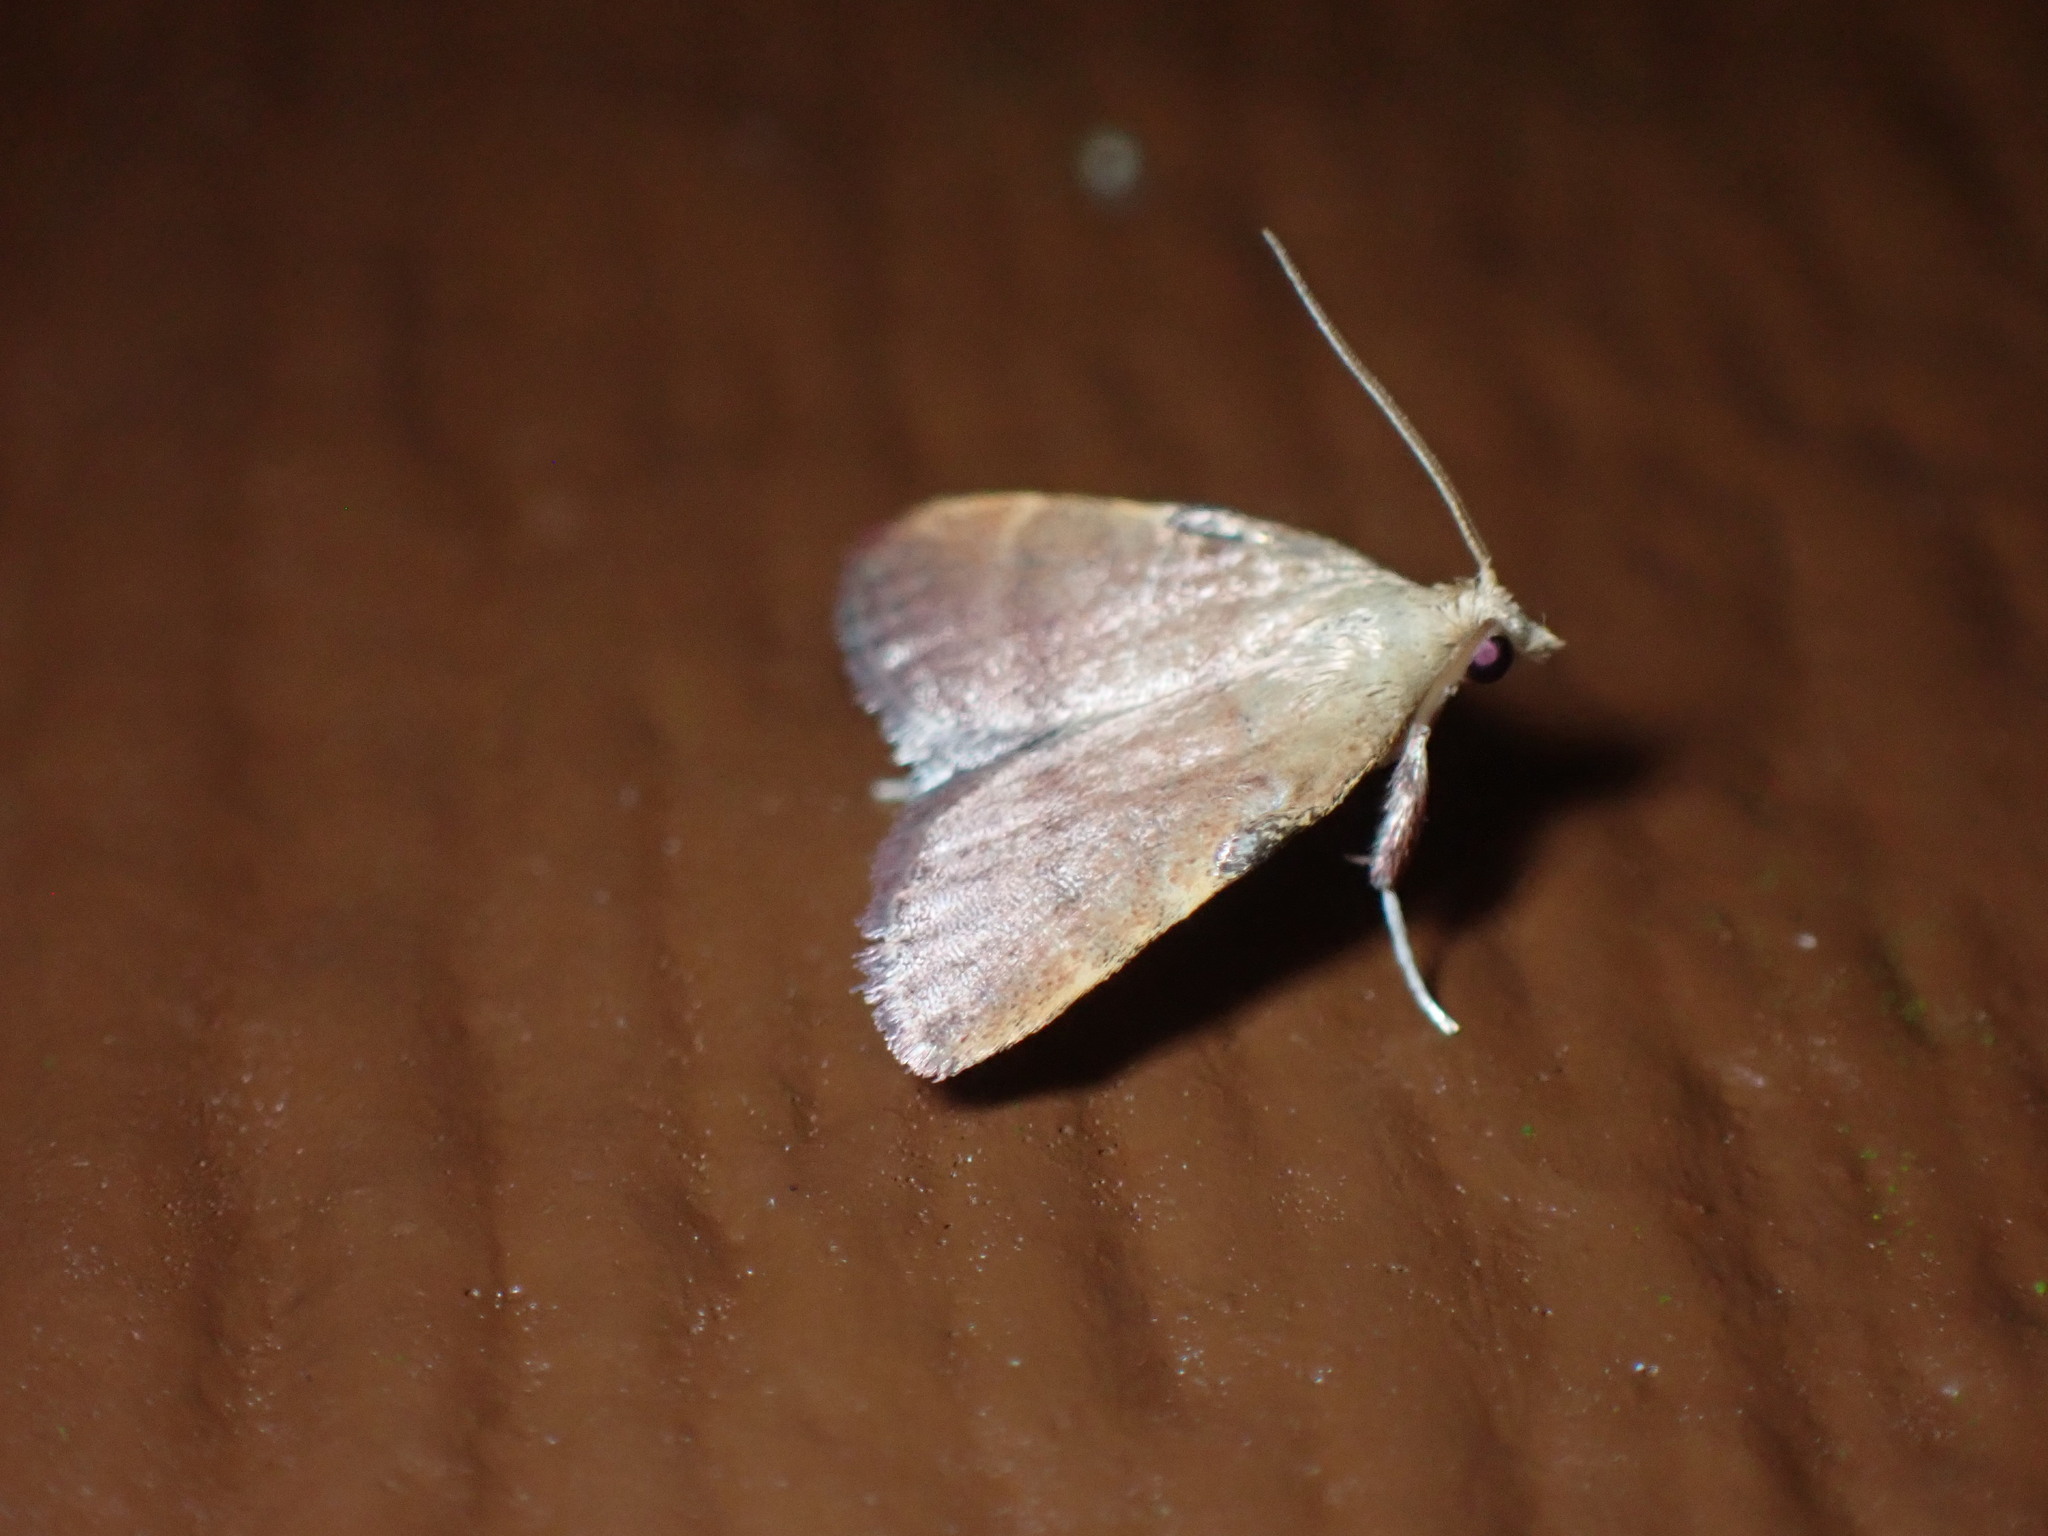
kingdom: Animalia
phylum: Arthropoda
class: Insecta
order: Lepidoptera
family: Pyralidae
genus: Condylolomia
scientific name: Condylolomia participialis
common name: Drab condylolomia moth
